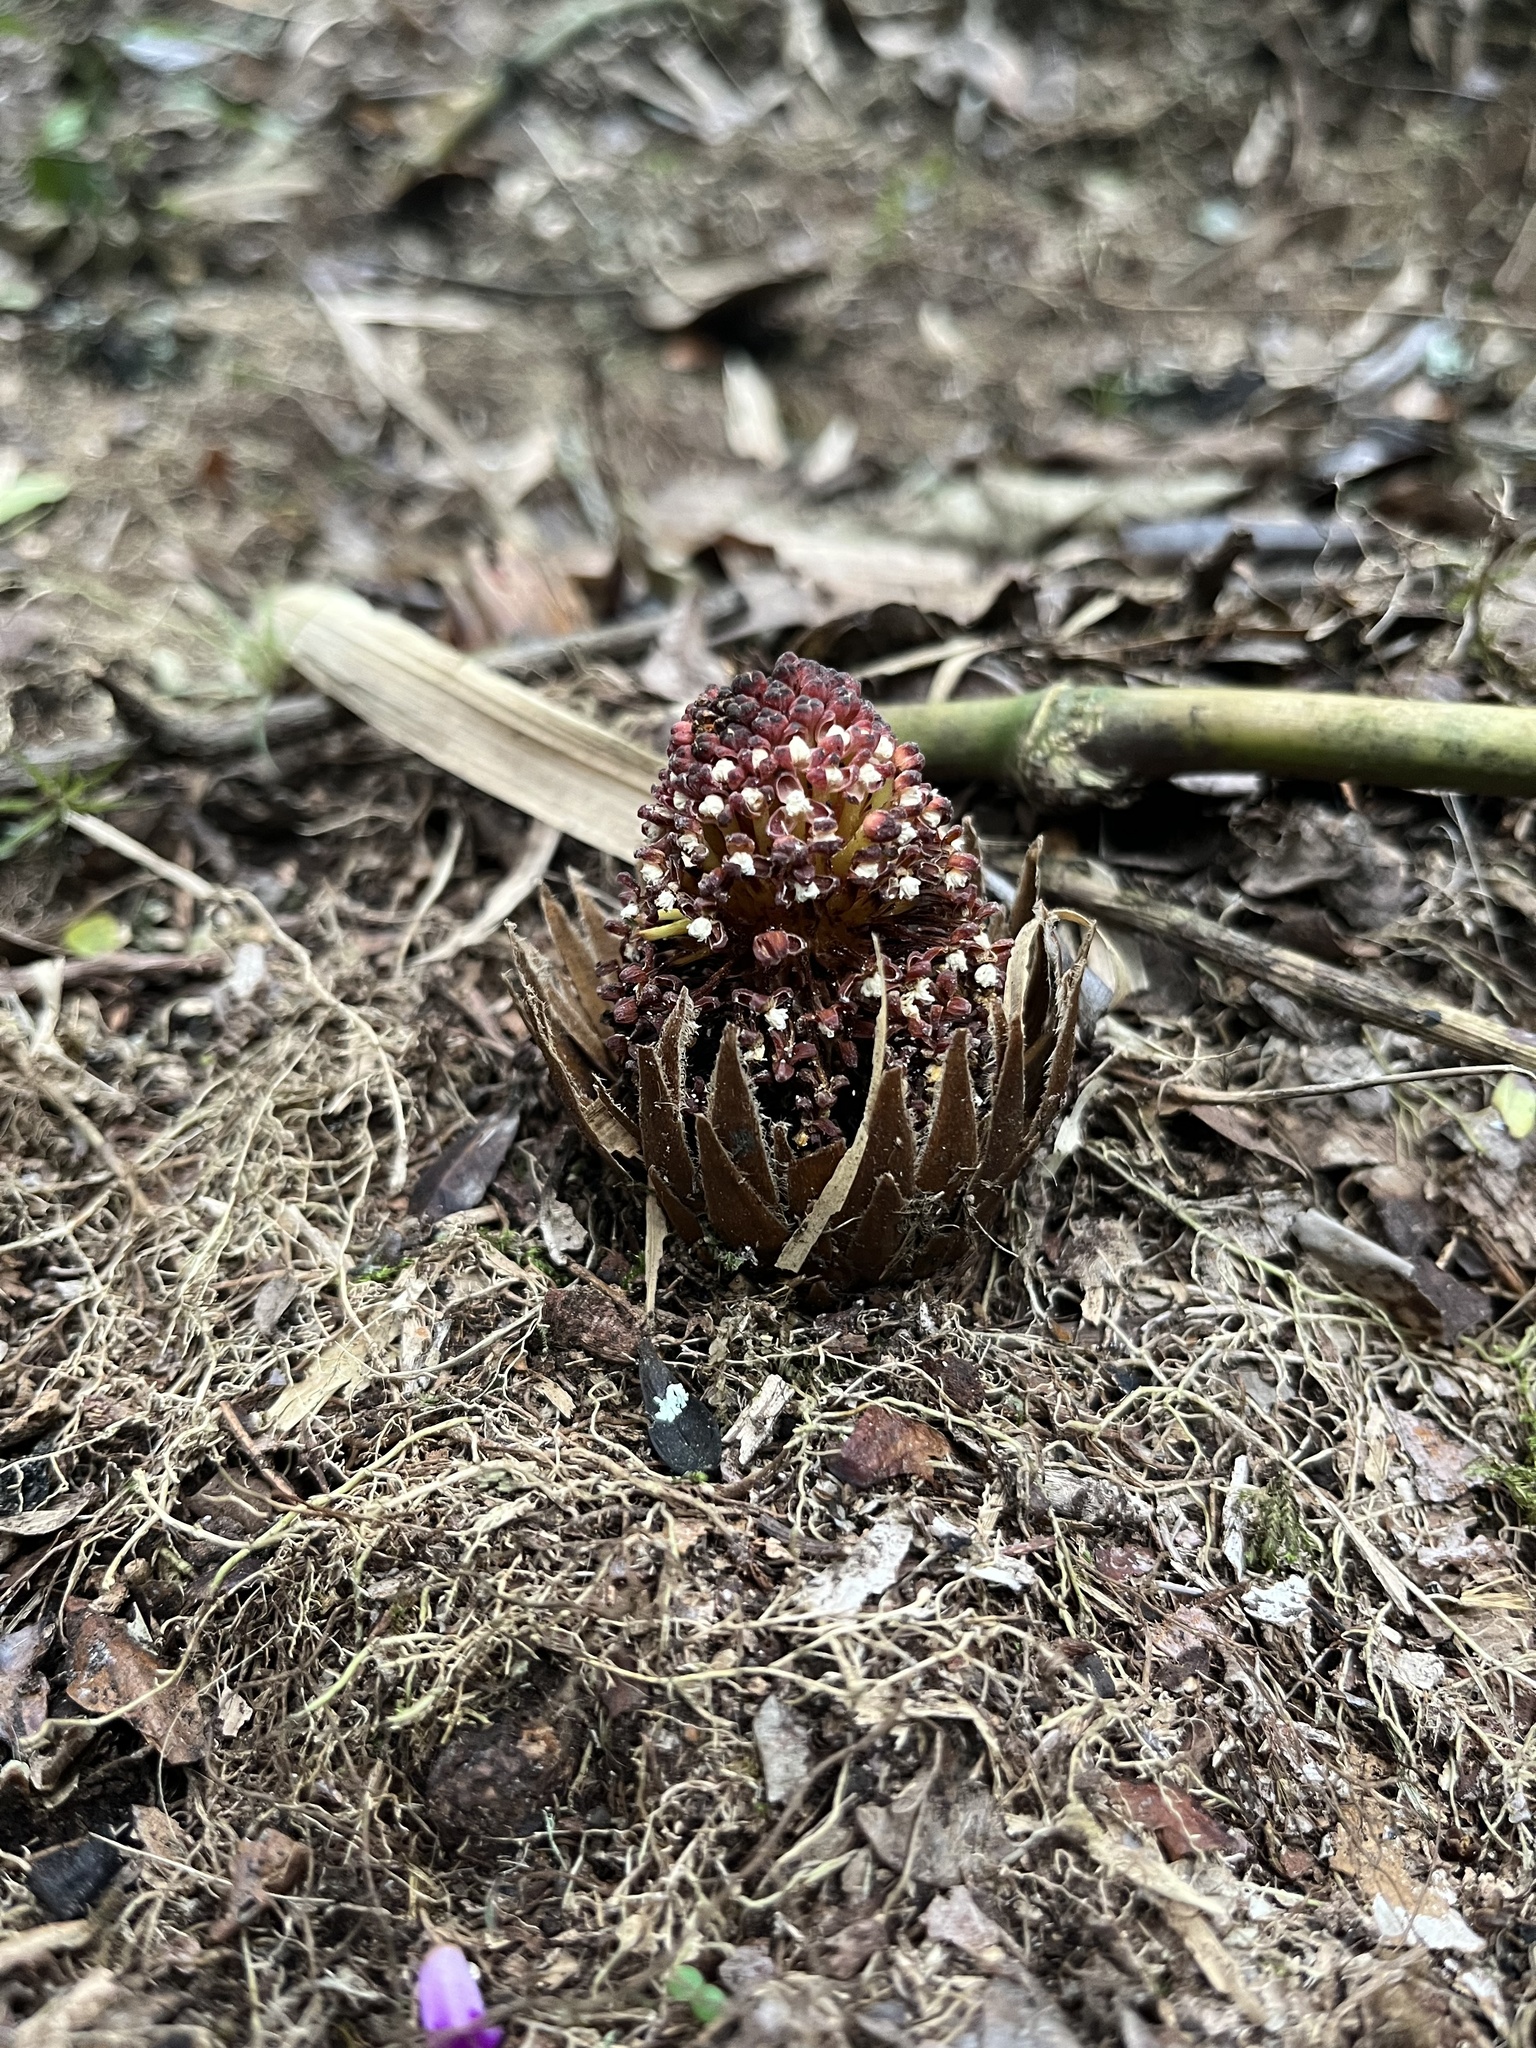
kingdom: Plantae
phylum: Tracheophyta
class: Magnoliopsida
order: Santalales
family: Balanophoraceae
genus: Langsdorffia
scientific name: Langsdorffia hypogaea
